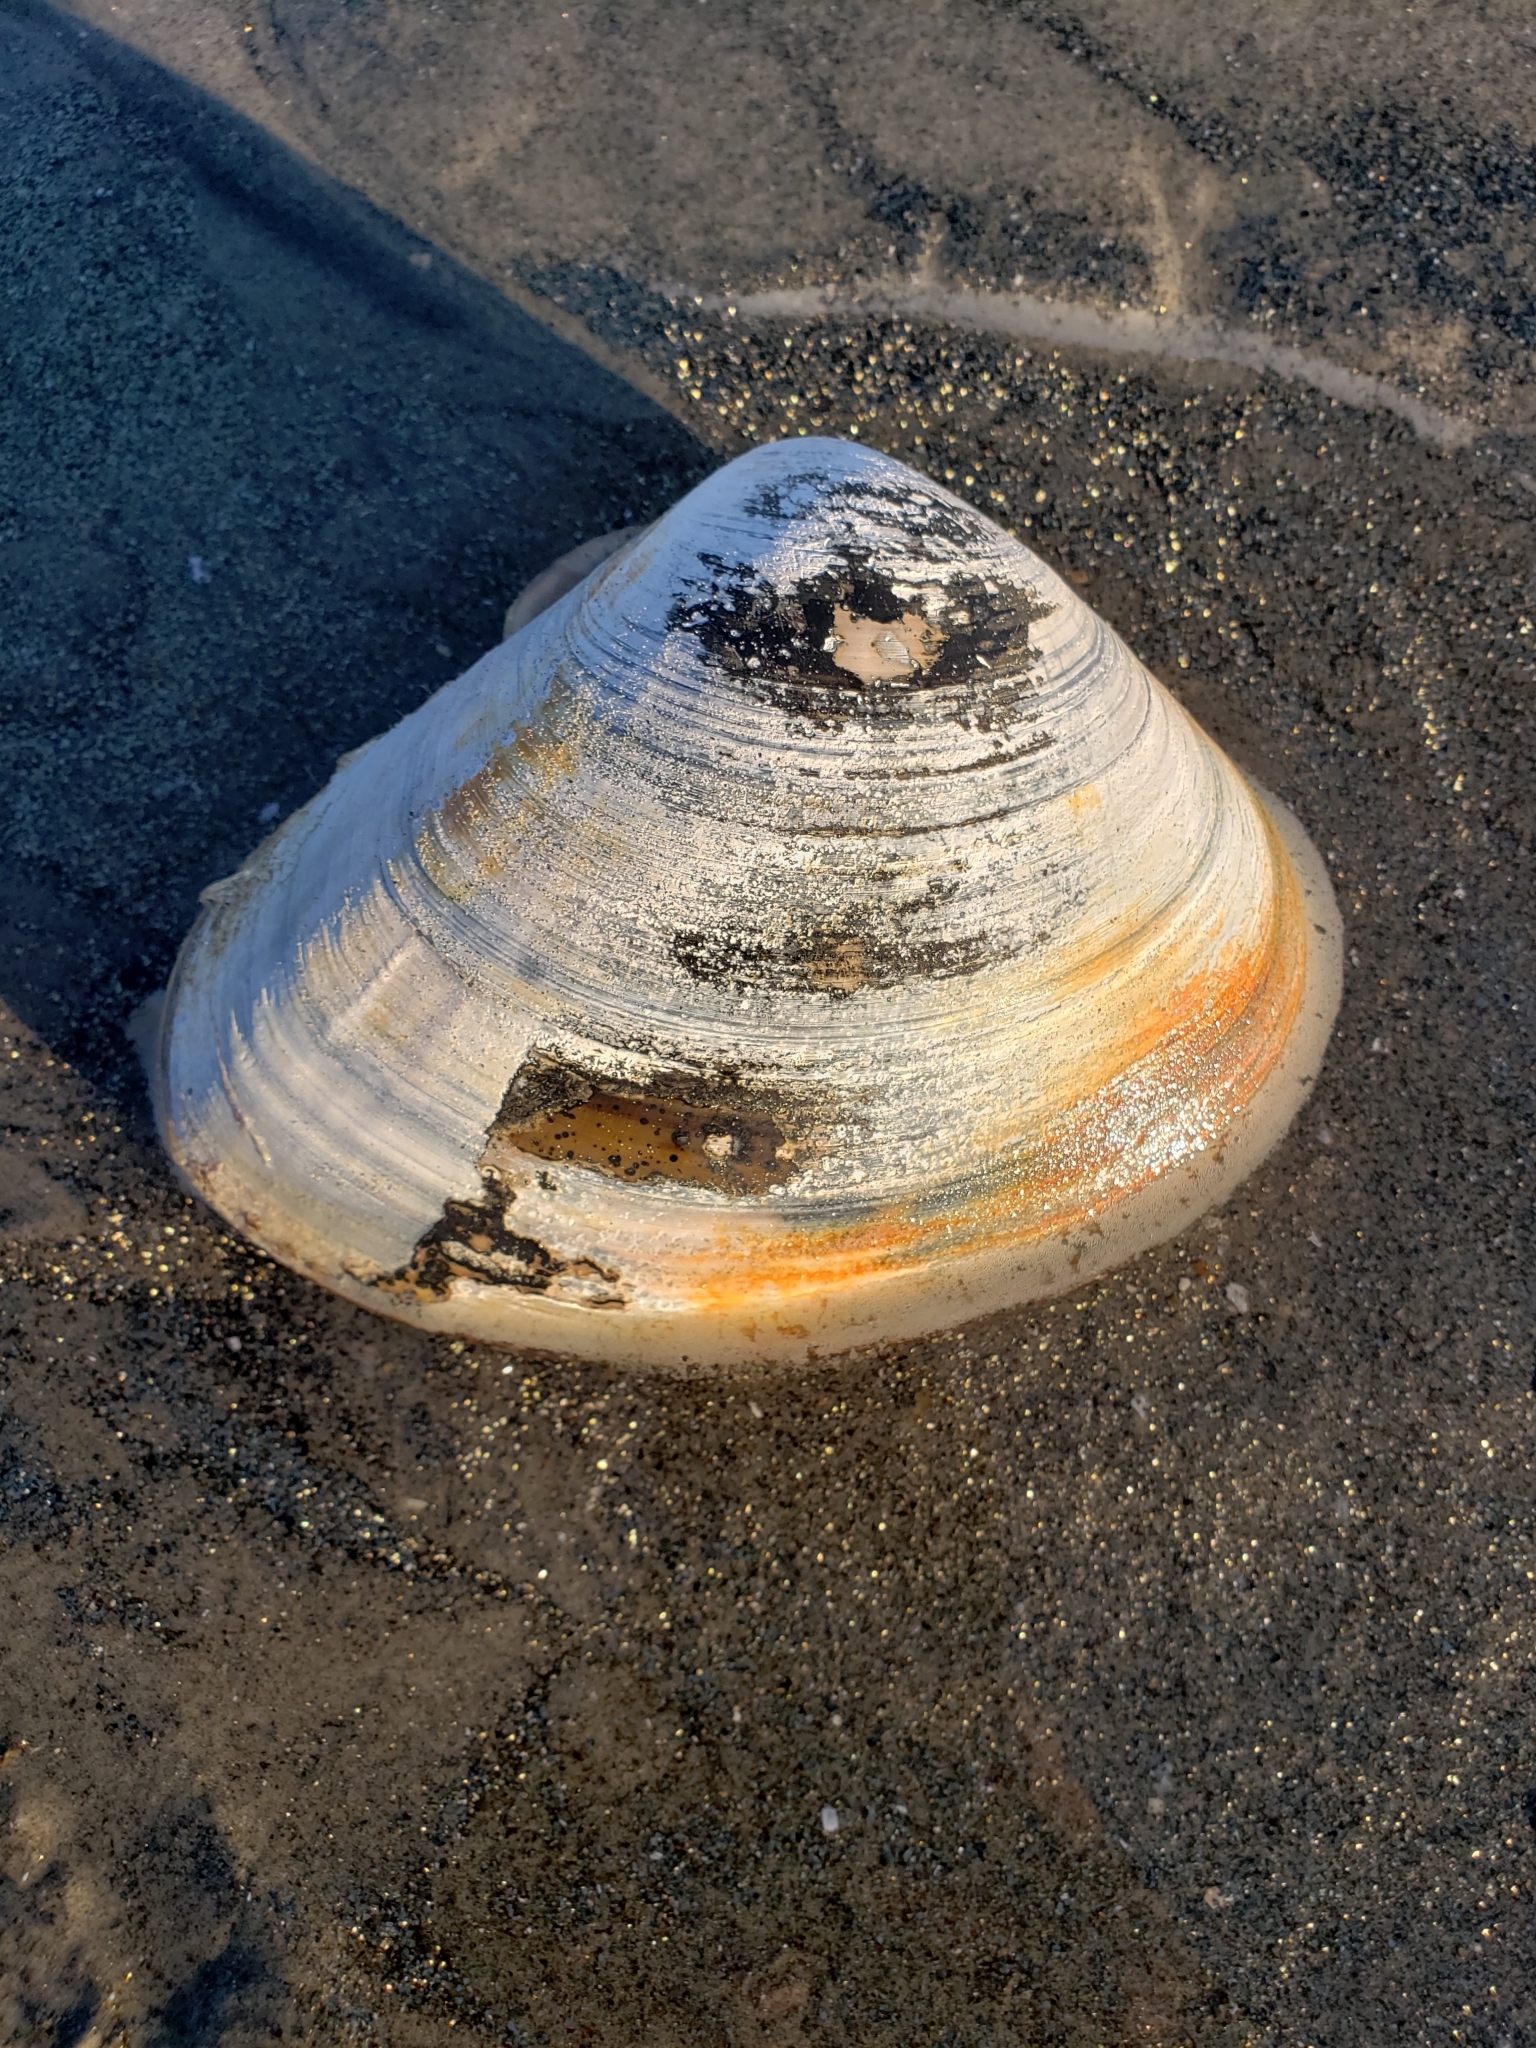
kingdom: Animalia
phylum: Mollusca
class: Bivalvia
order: Venerida
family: Veneridae
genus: Tivela
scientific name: Tivela stultorum
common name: Pismo clam
